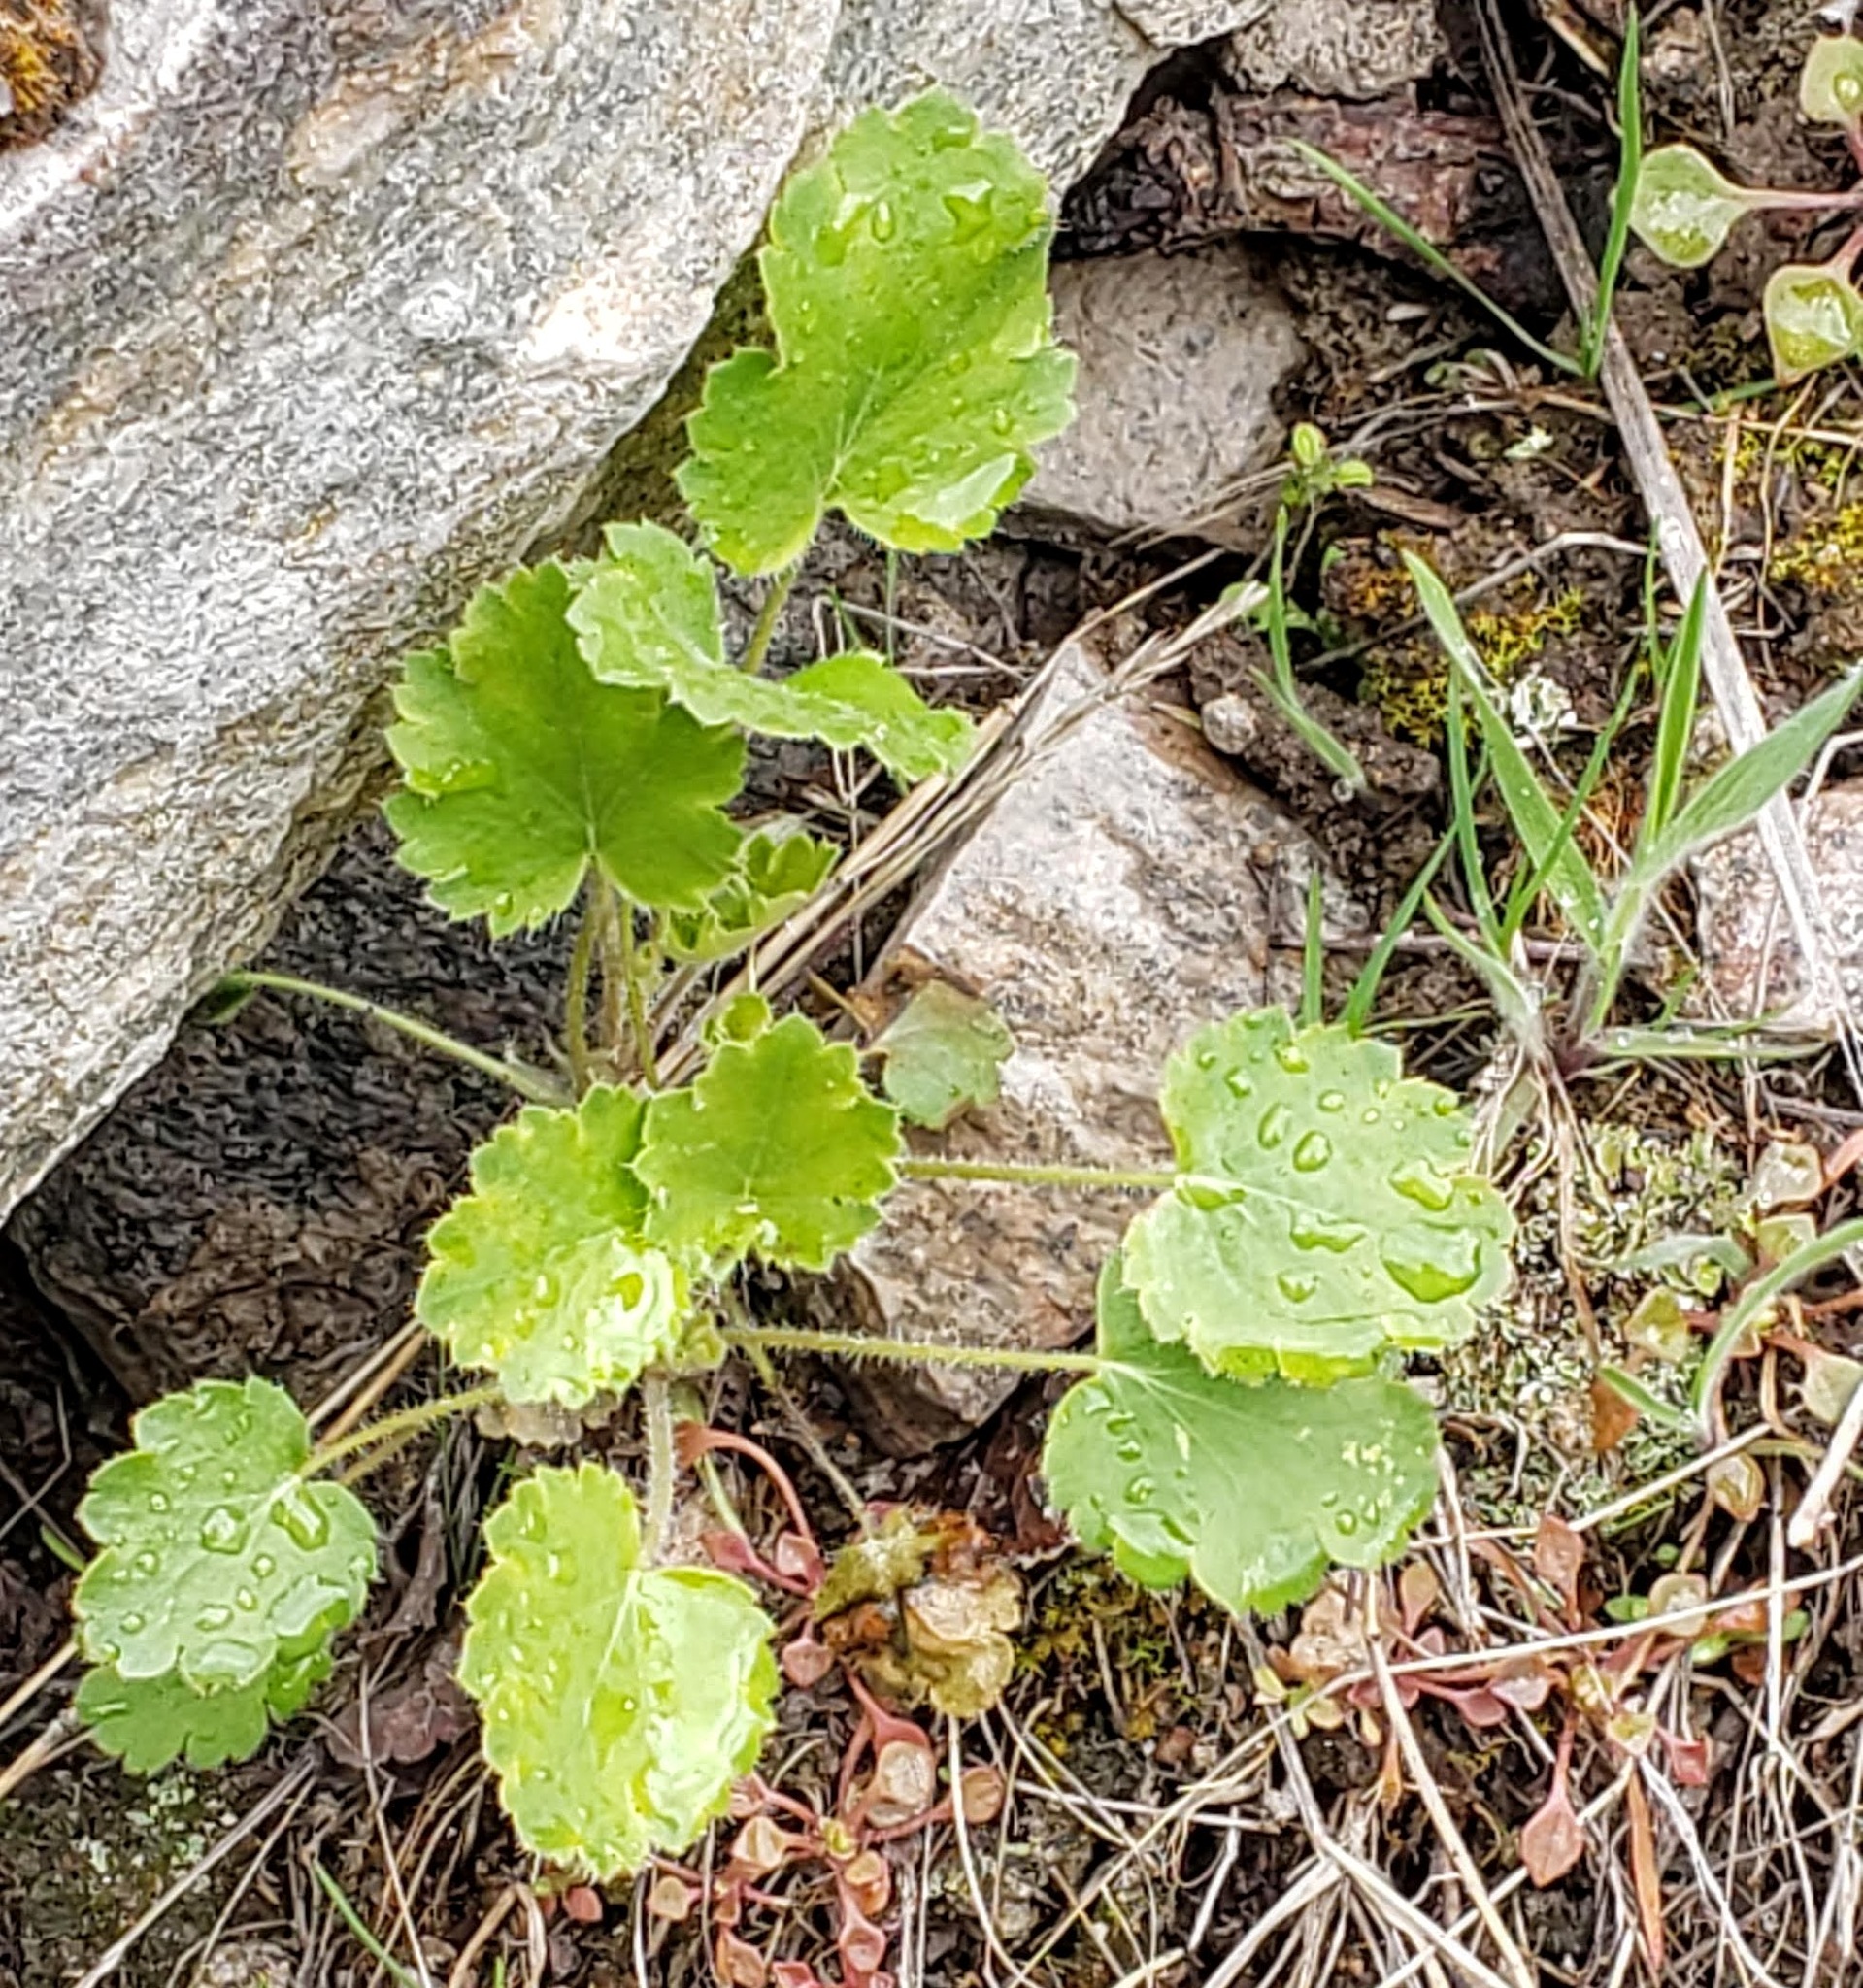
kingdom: Plantae
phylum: Tracheophyta
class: Magnoliopsida
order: Saxifragales
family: Saxifragaceae
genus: Heuchera
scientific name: Heuchera cylindrica
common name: Mat alumroot
